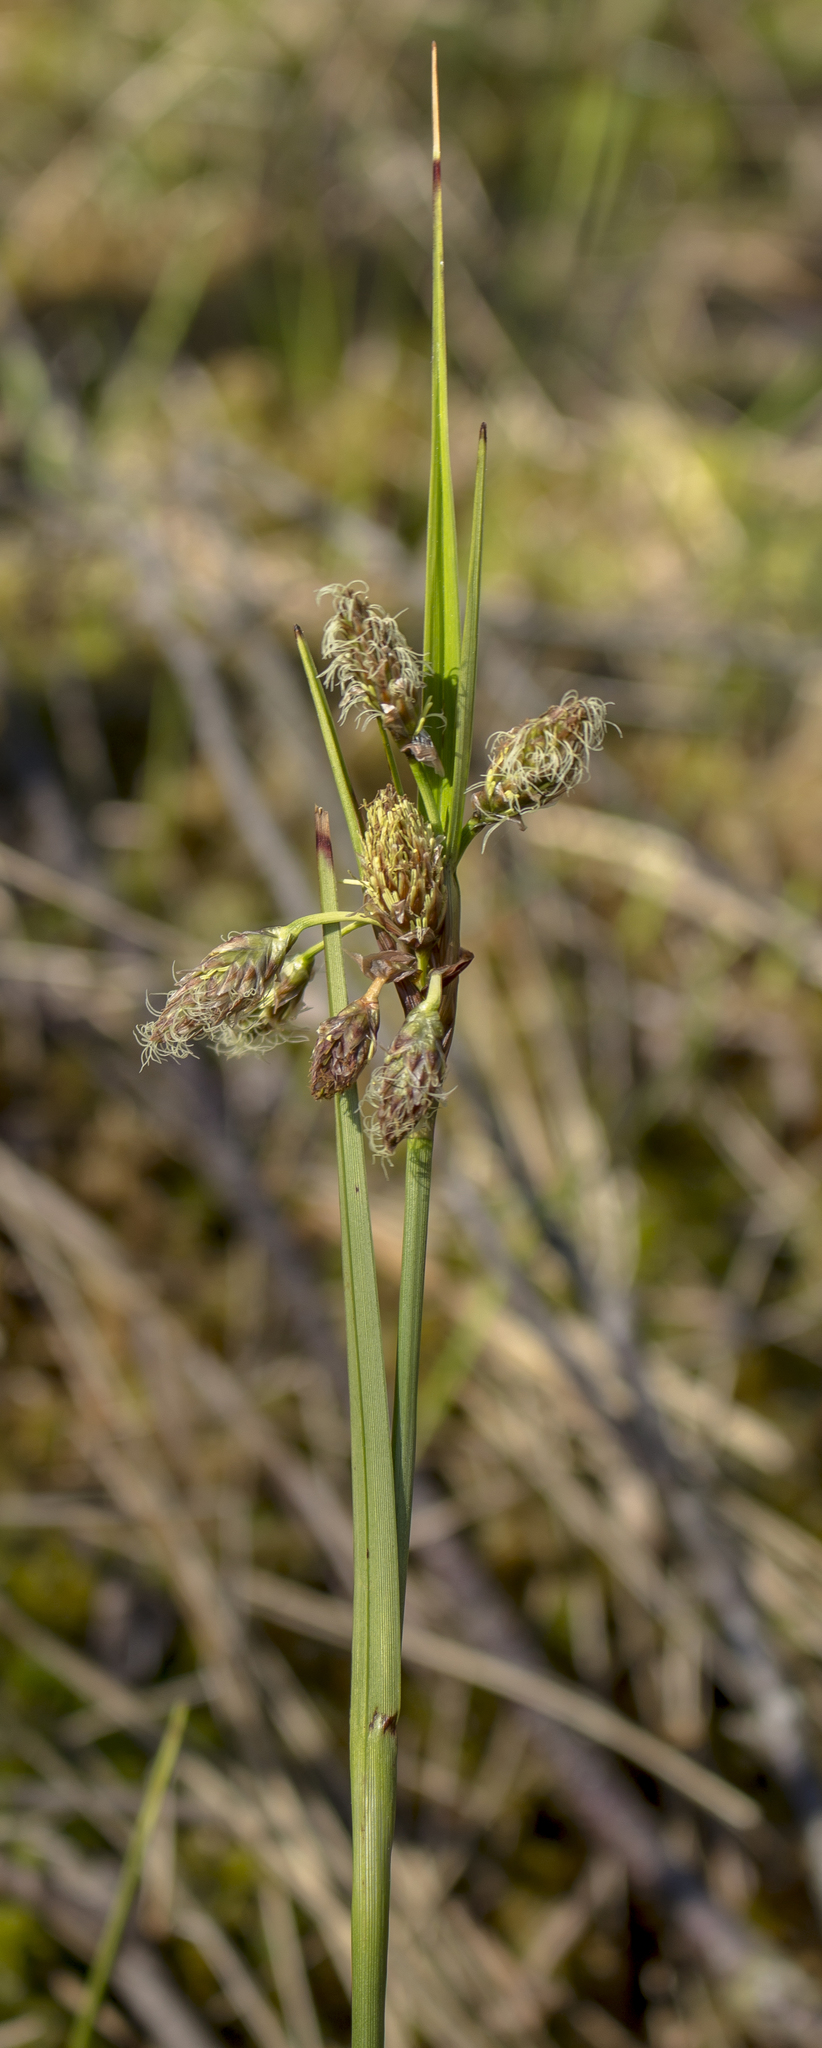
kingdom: Plantae
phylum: Tracheophyta
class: Liliopsida
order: Poales
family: Cyperaceae
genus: Eriophorum
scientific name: Eriophorum angustifolium
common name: Common cottongrass
